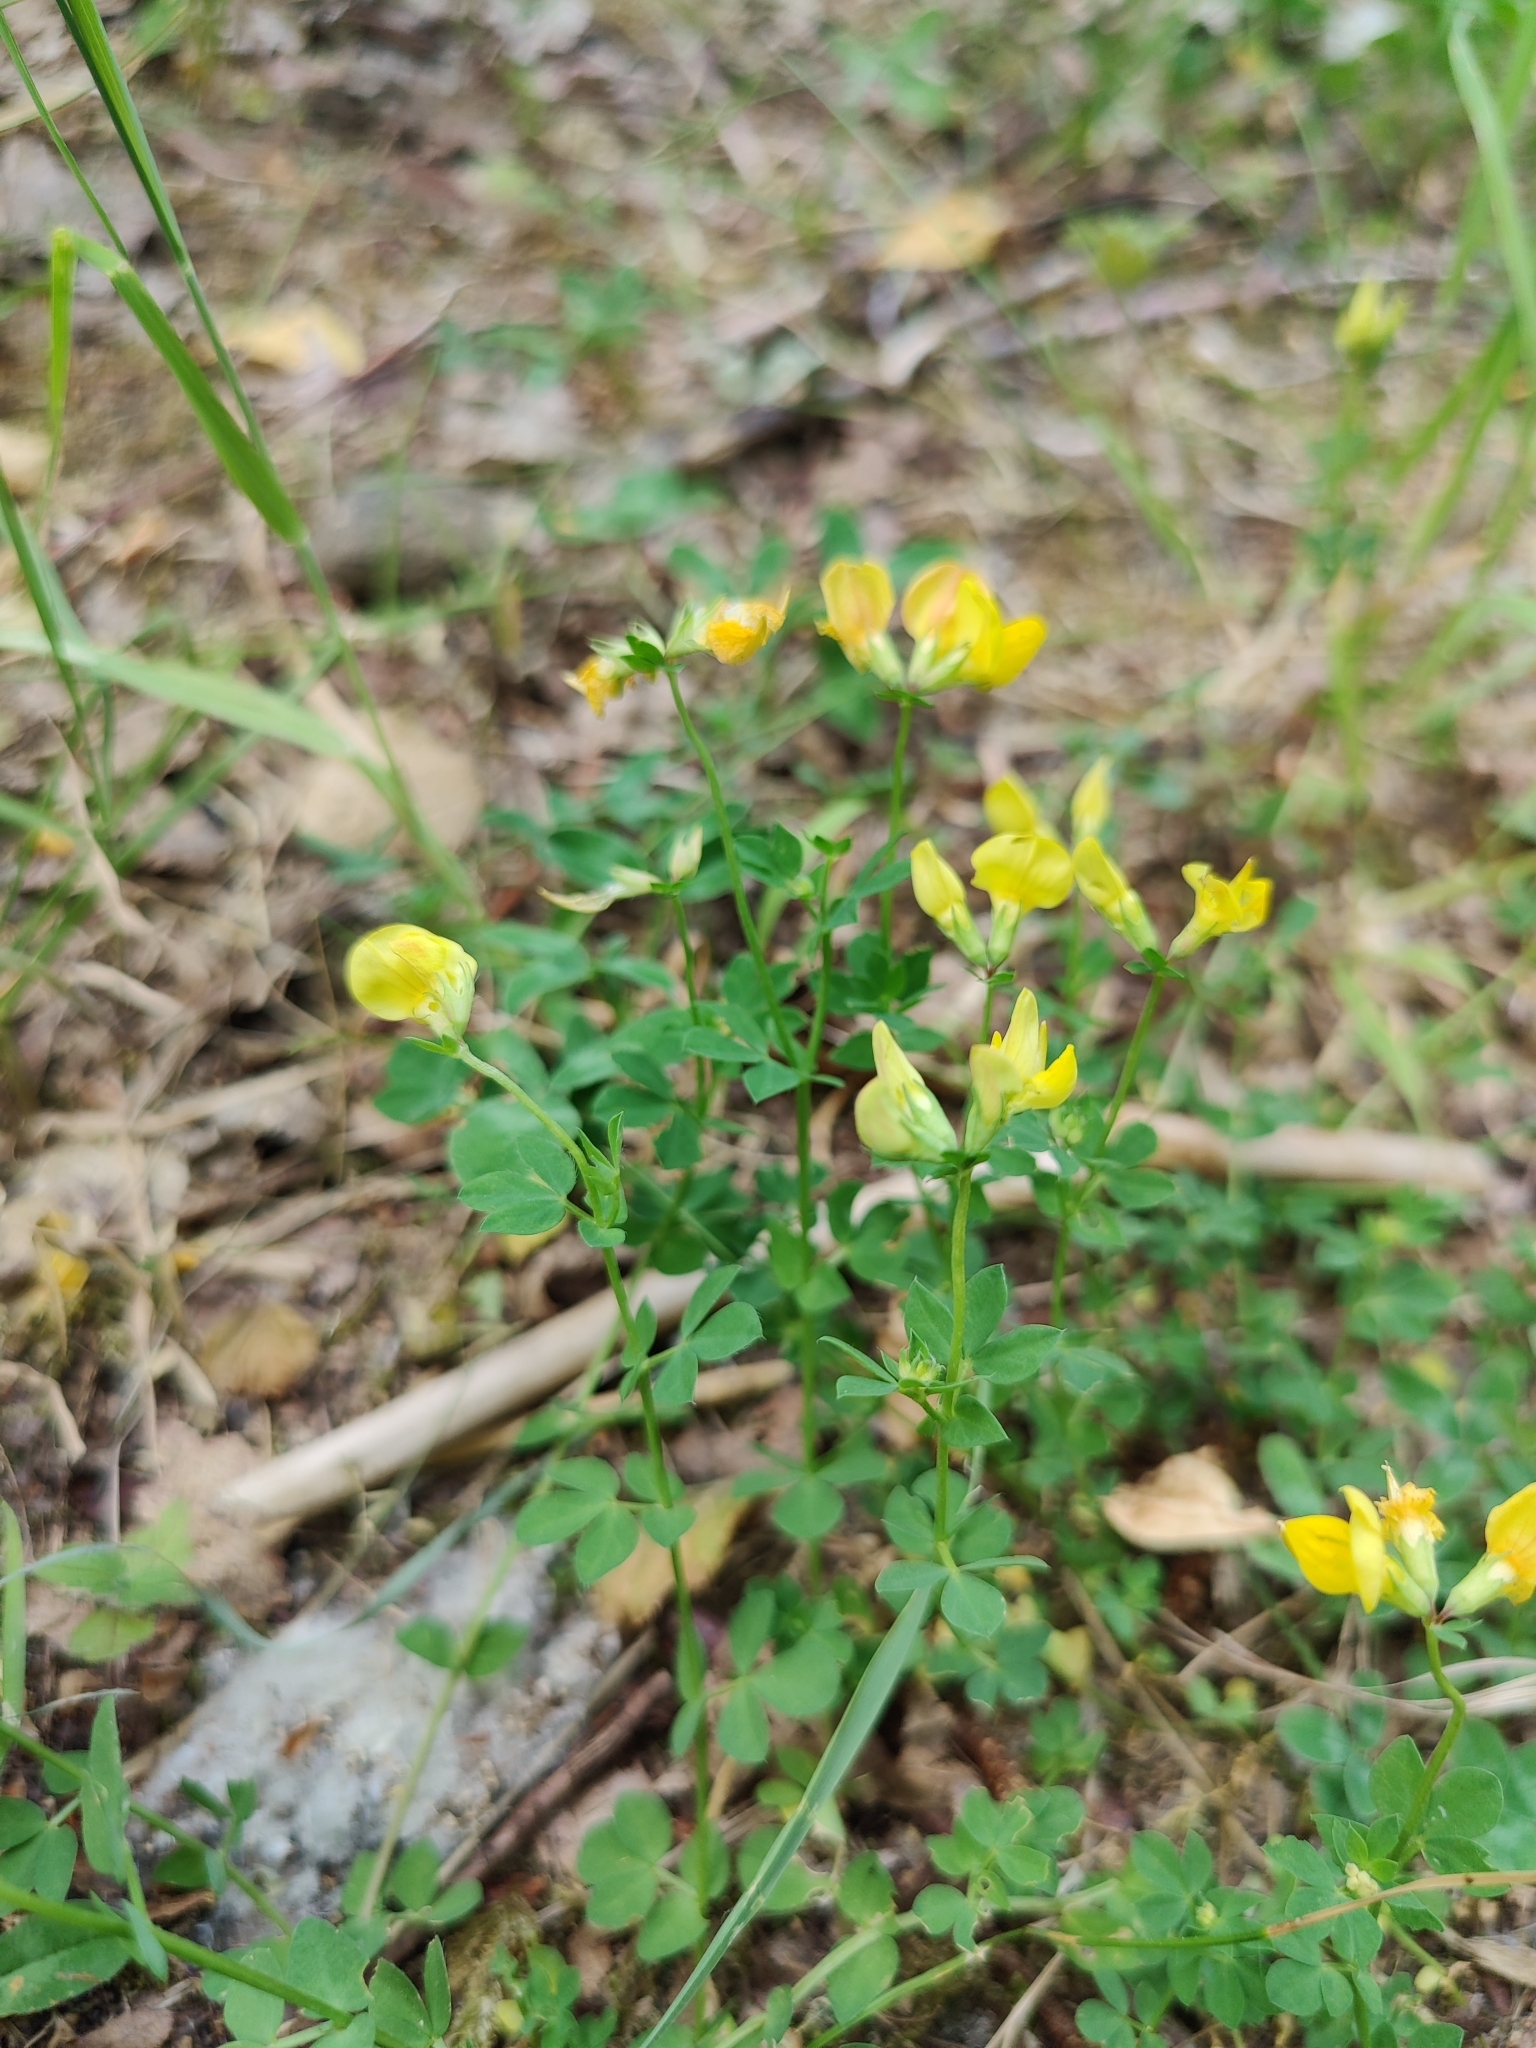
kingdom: Plantae
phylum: Tracheophyta
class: Magnoliopsida
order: Fabales
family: Fabaceae
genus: Lotus
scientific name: Lotus corniculatus
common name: Common bird's-foot-trefoil
